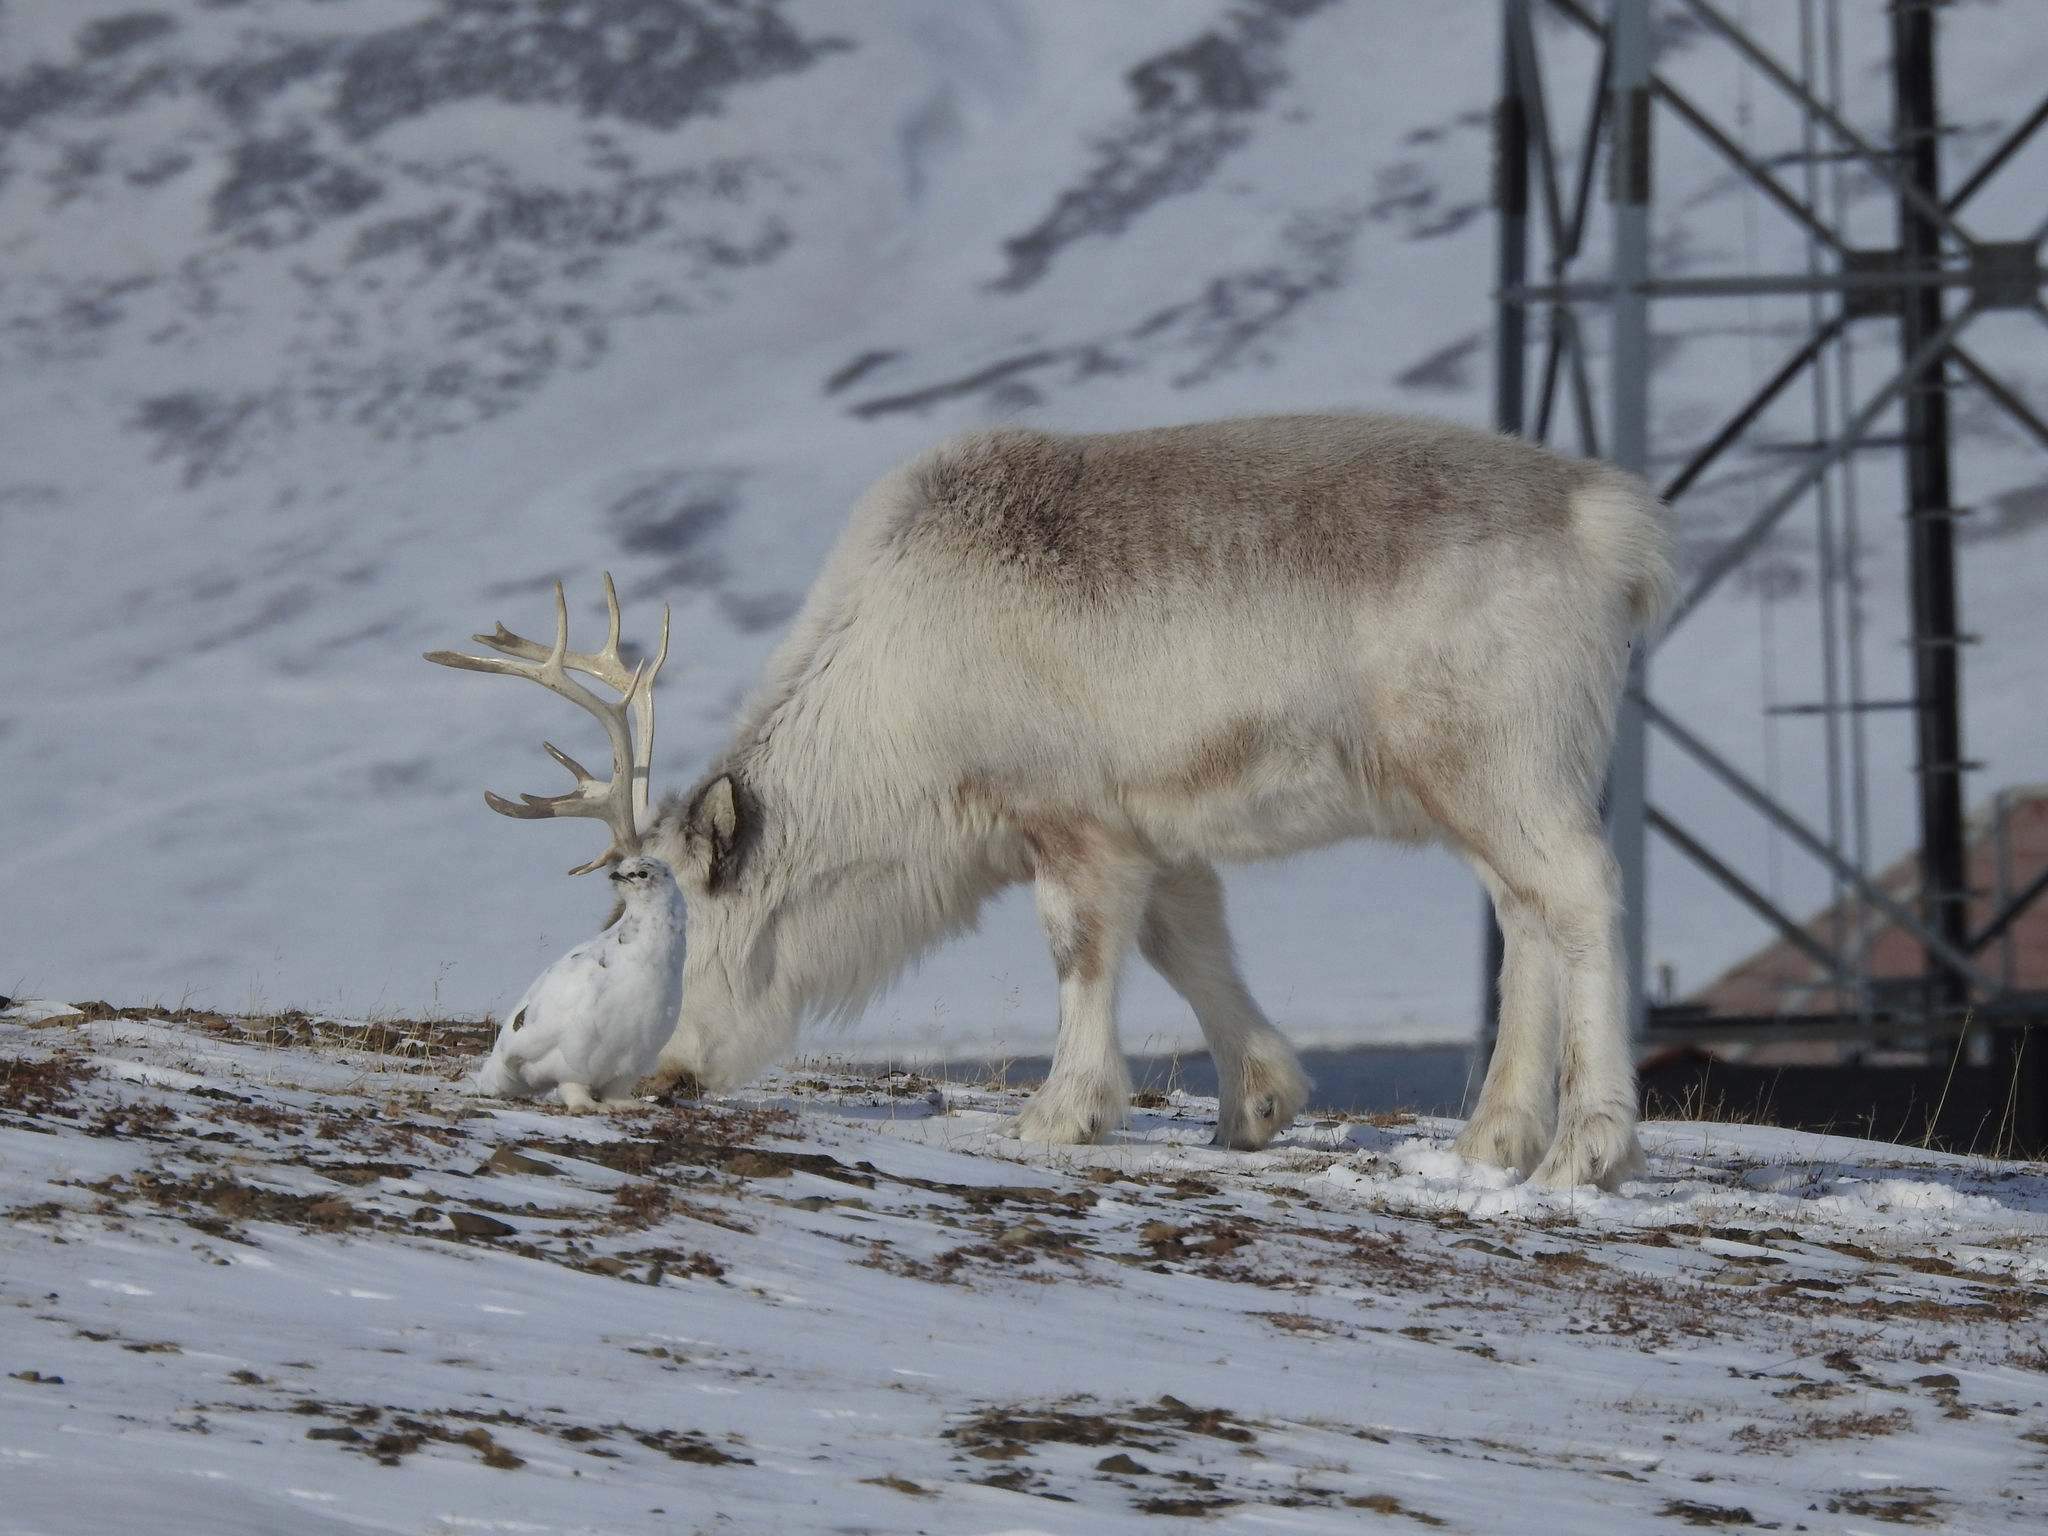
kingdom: Animalia
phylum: Chordata
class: Aves
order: Galliformes
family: Phasianidae
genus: Lagopus
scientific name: Lagopus muta
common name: Rock ptarmigan
